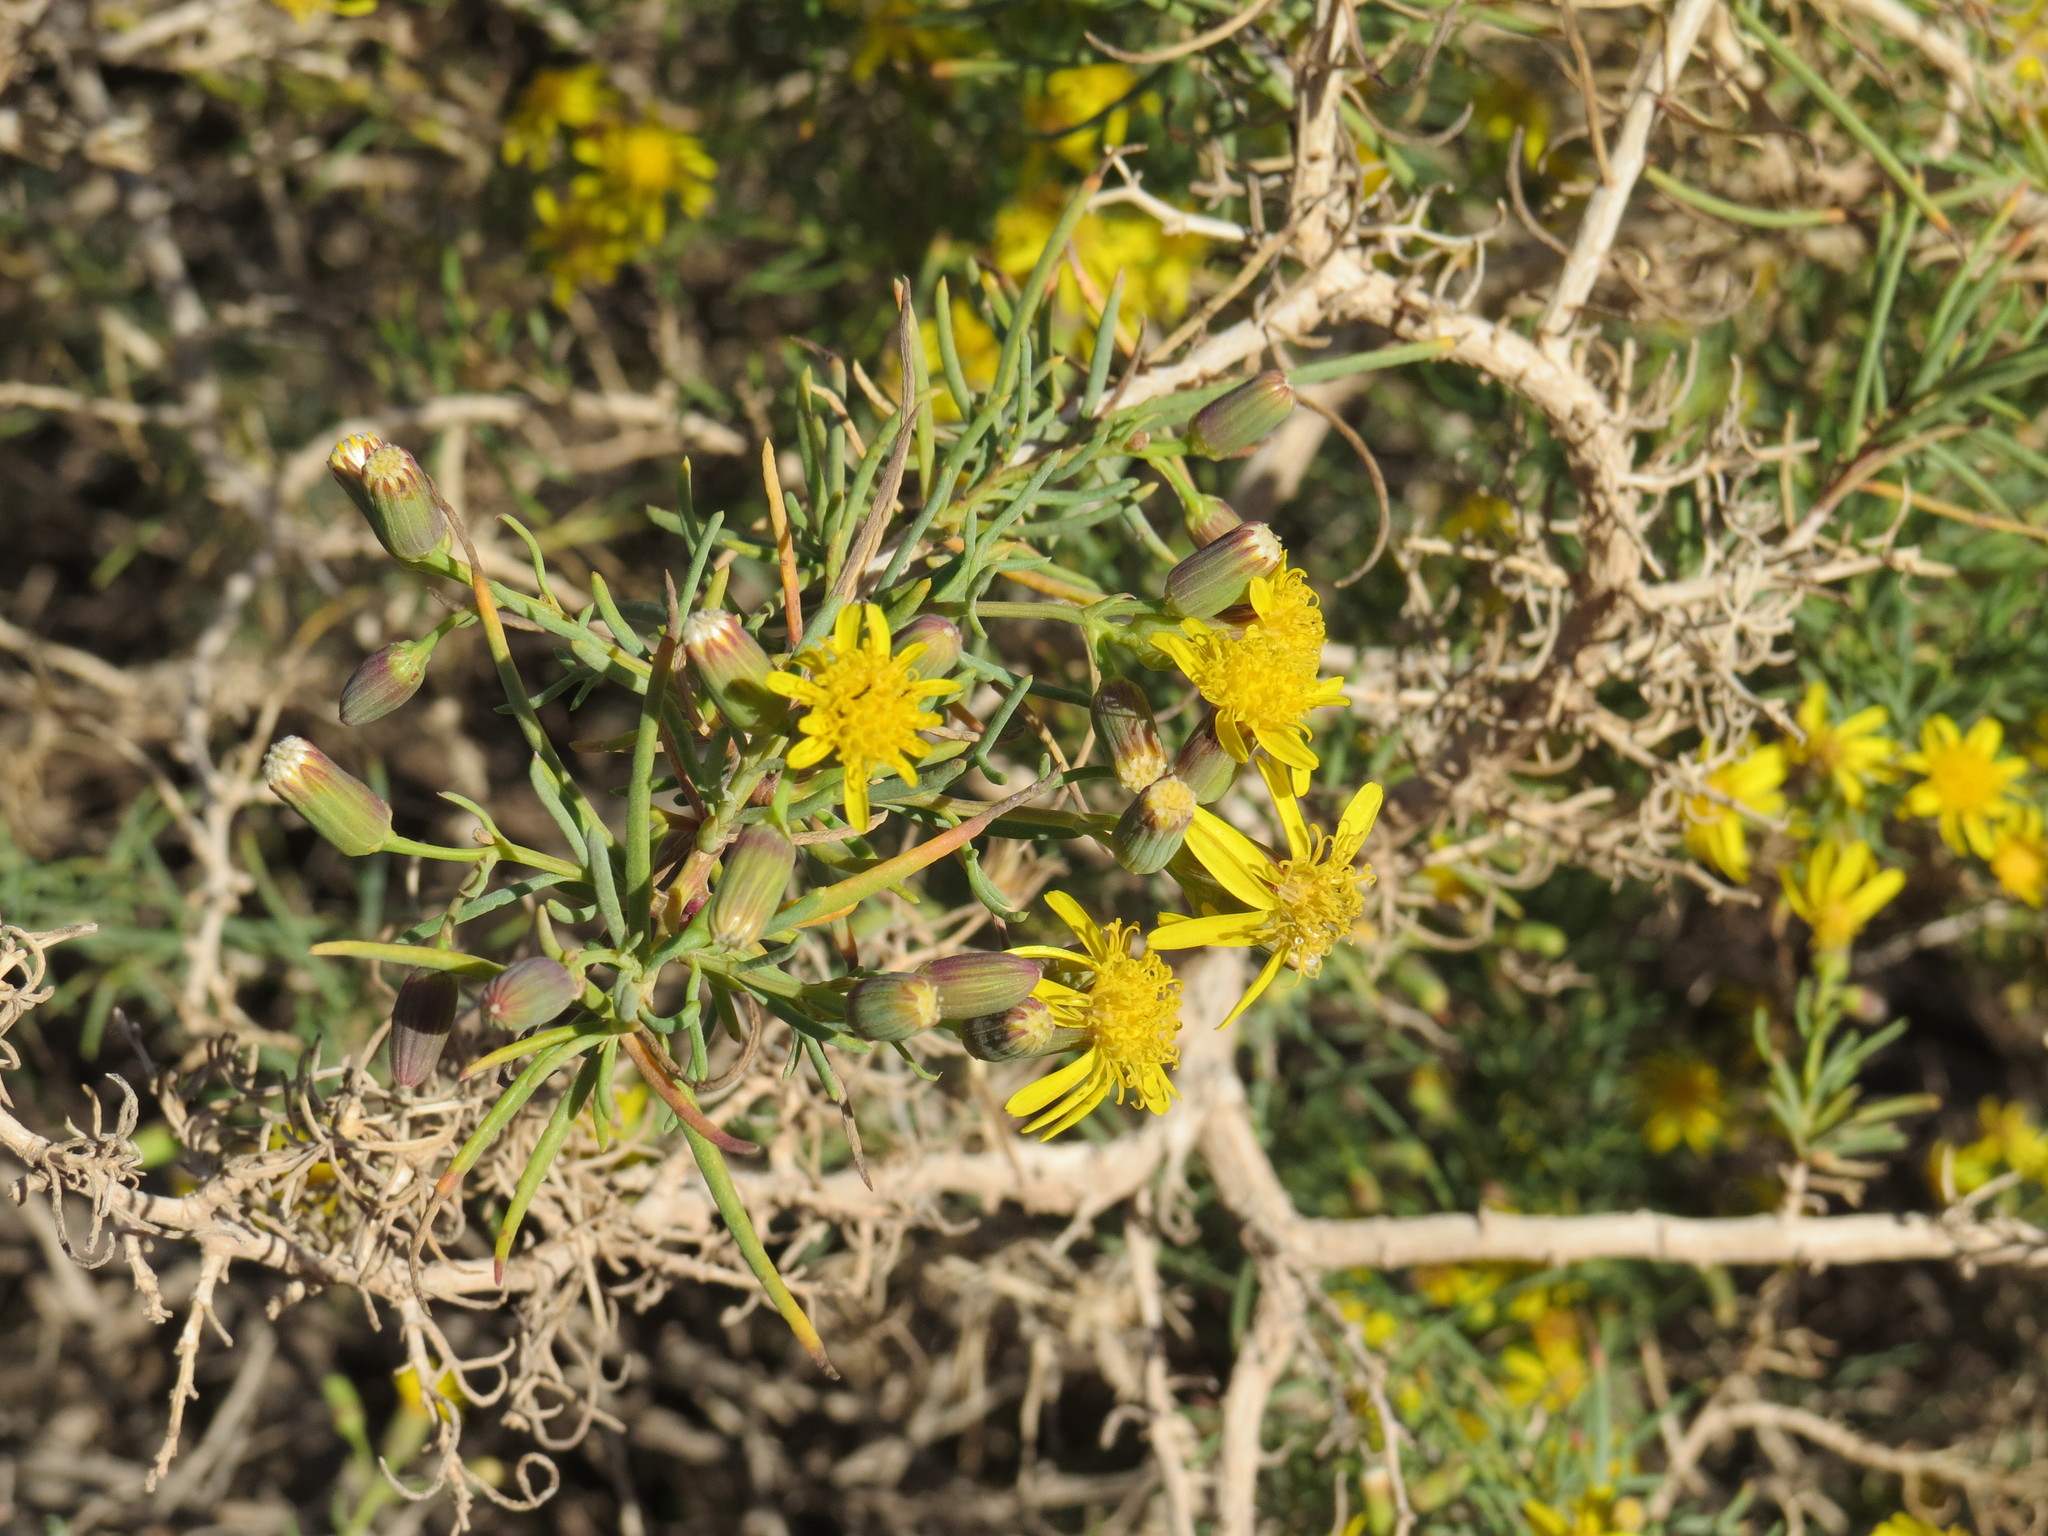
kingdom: Plantae
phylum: Tracheophyta
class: Magnoliopsida
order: Asterales
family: Asteraceae
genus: Senecio
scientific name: Senecio subulatus
